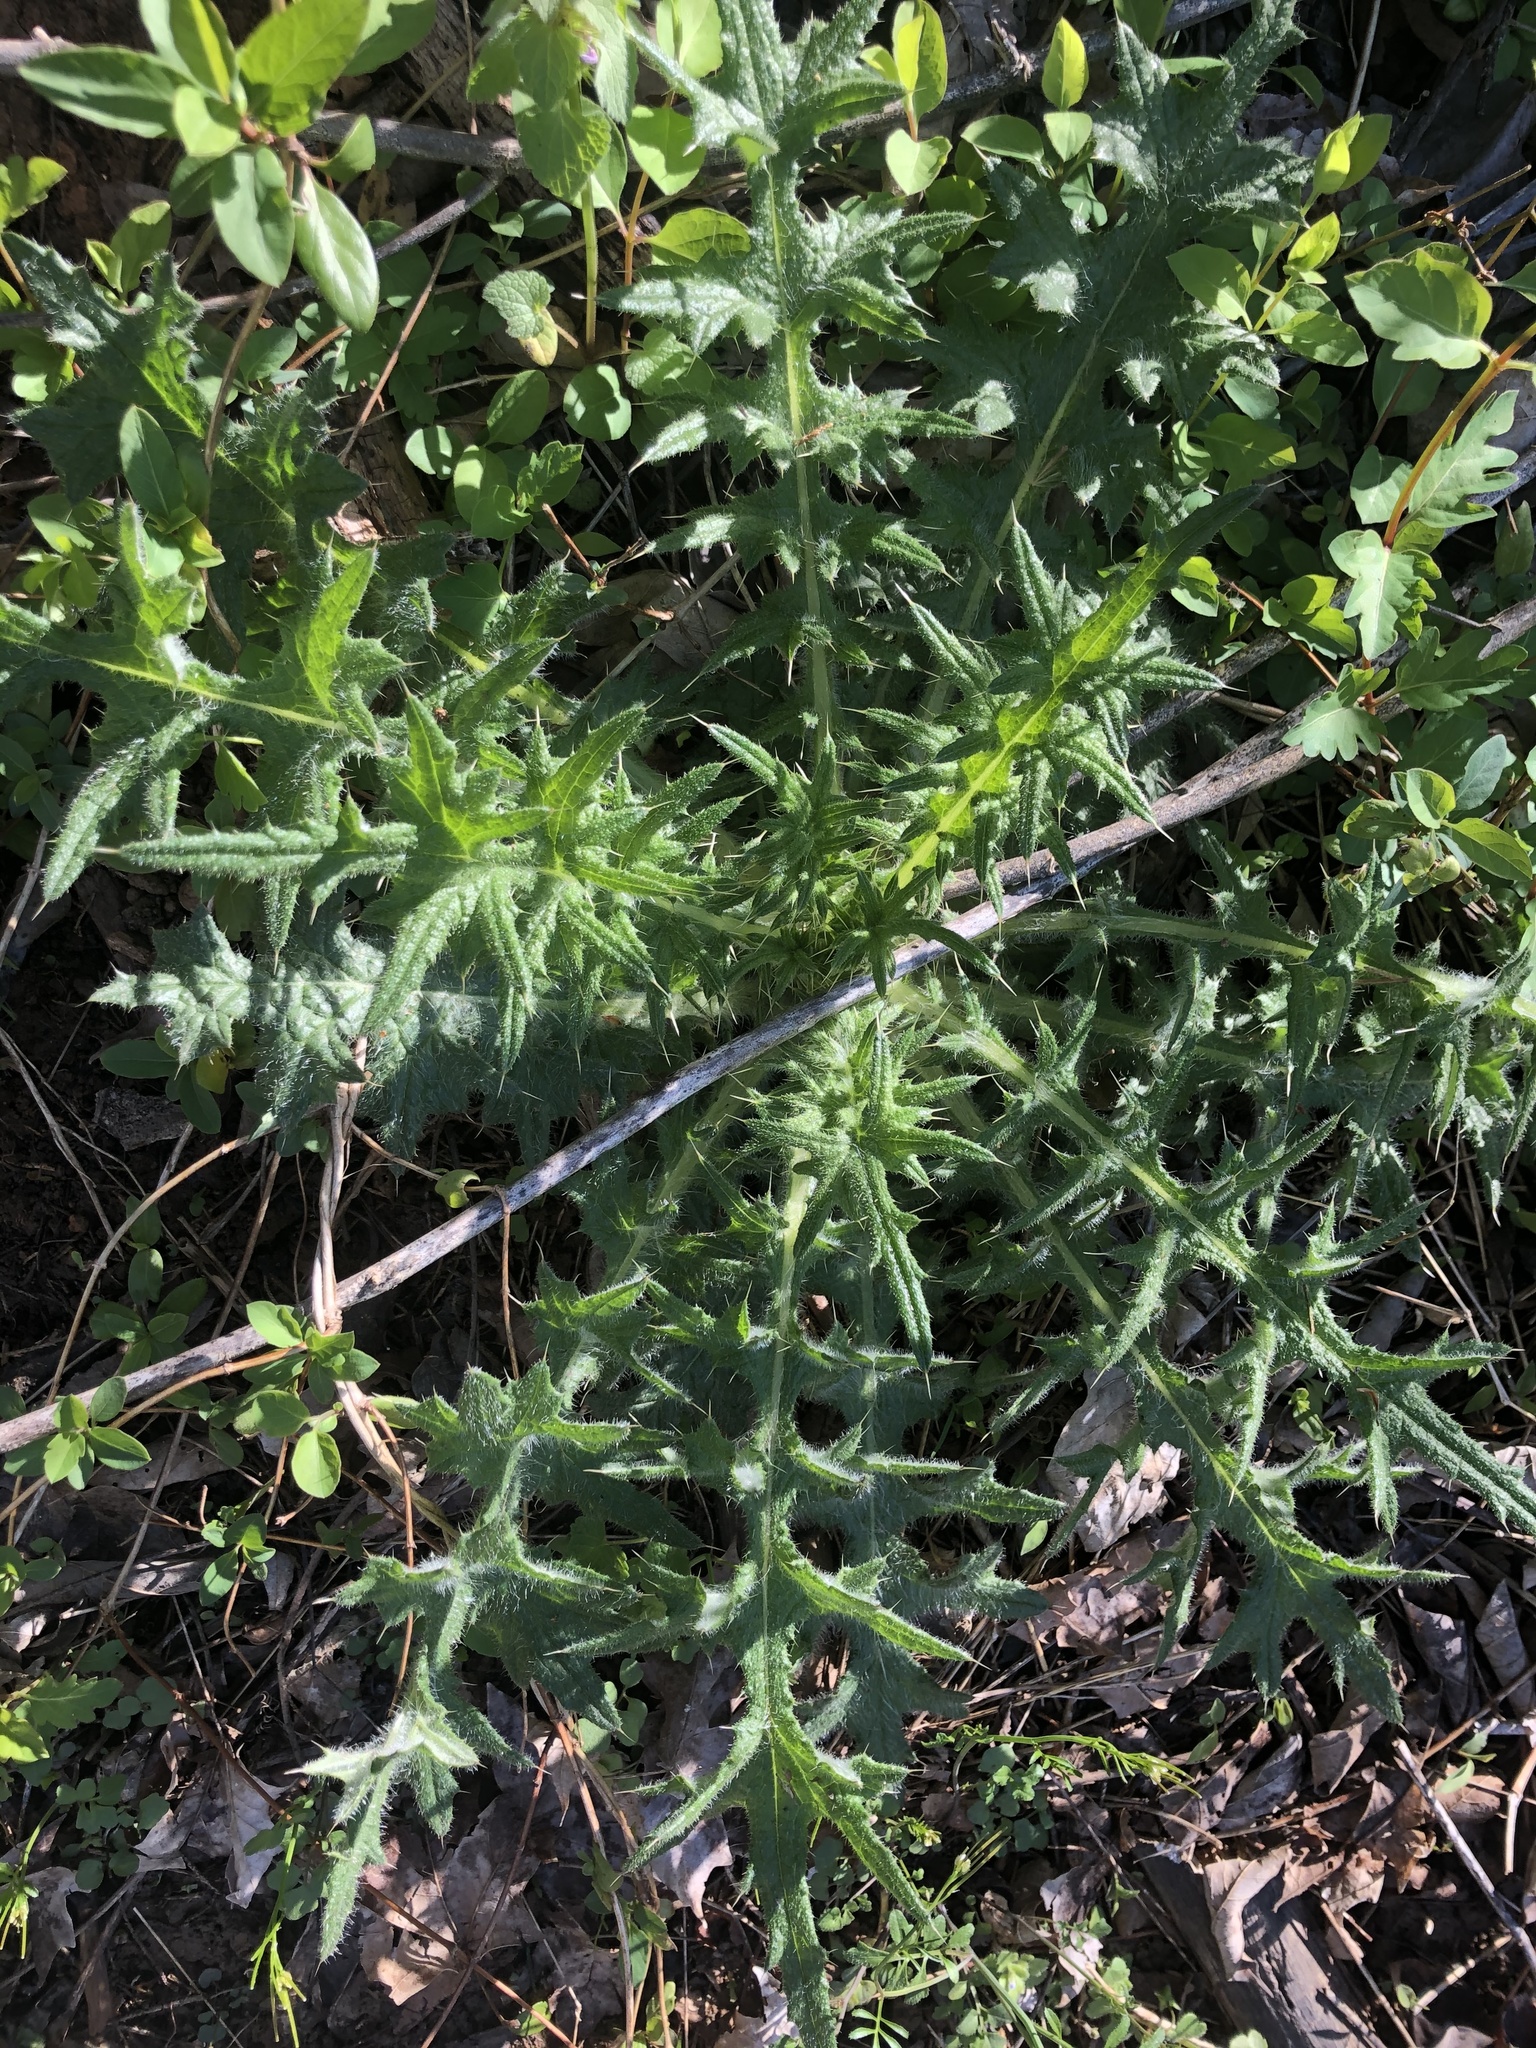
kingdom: Plantae
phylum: Tracheophyta
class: Magnoliopsida
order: Asterales
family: Asteraceae
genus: Cirsium
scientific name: Cirsium vulgare
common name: Bull thistle
